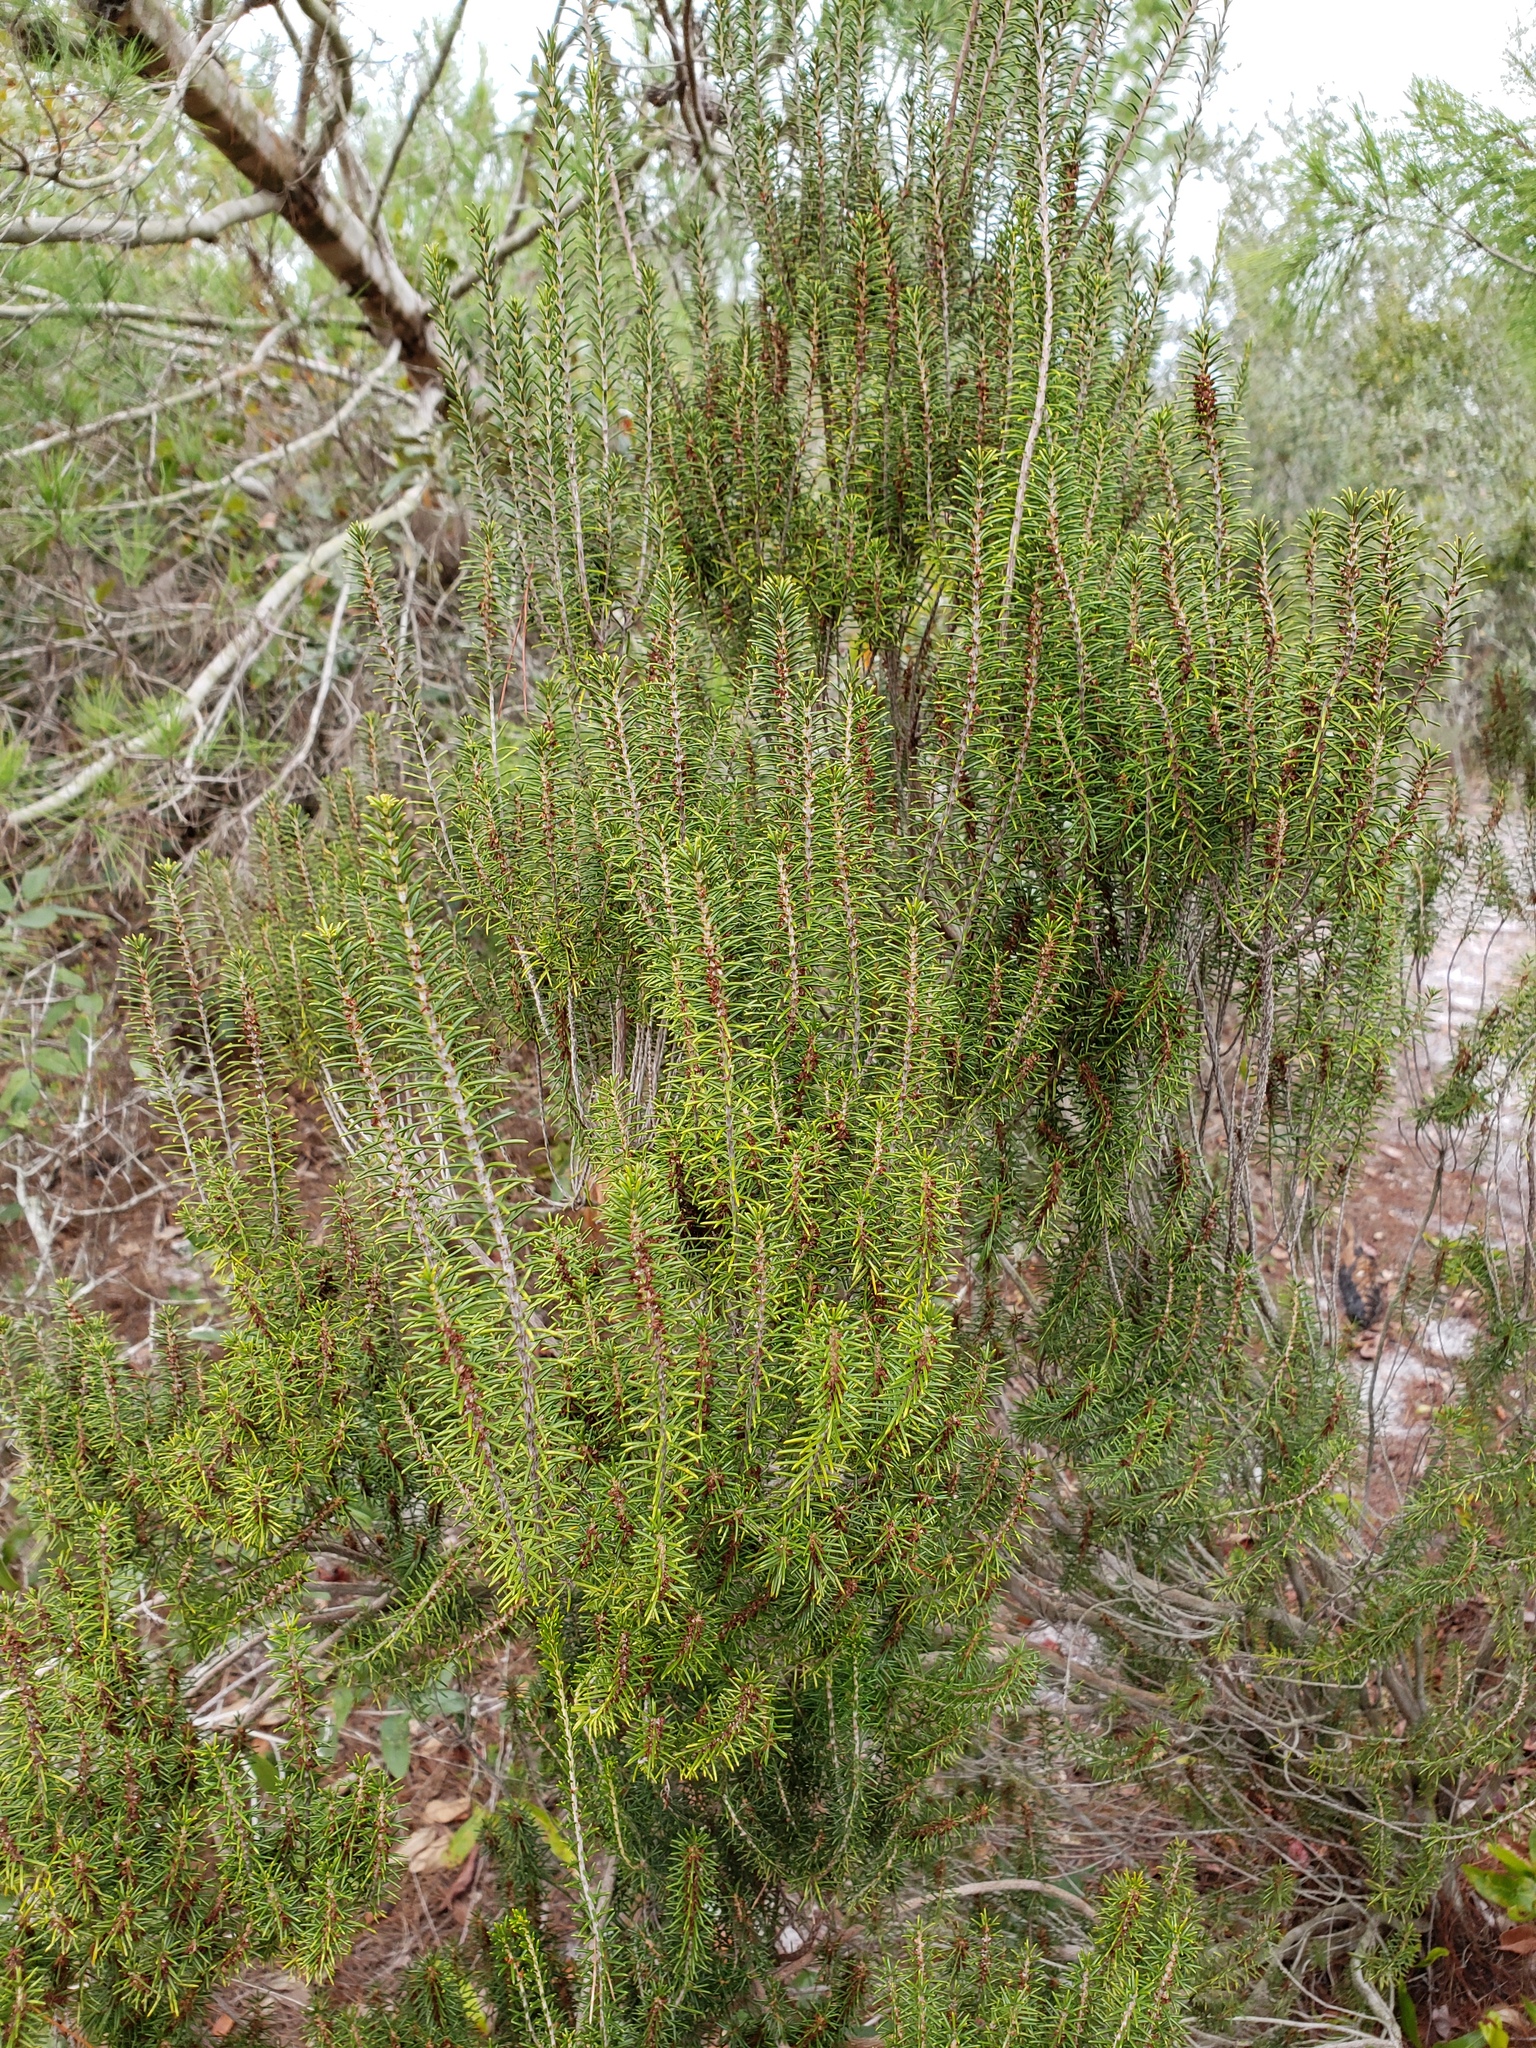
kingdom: Plantae
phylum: Tracheophyta
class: Magnoliopsida
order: Ericales
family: Ericaceae
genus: Ceratiola
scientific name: Ceratiola ericoides
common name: Sandhill-rosemary
